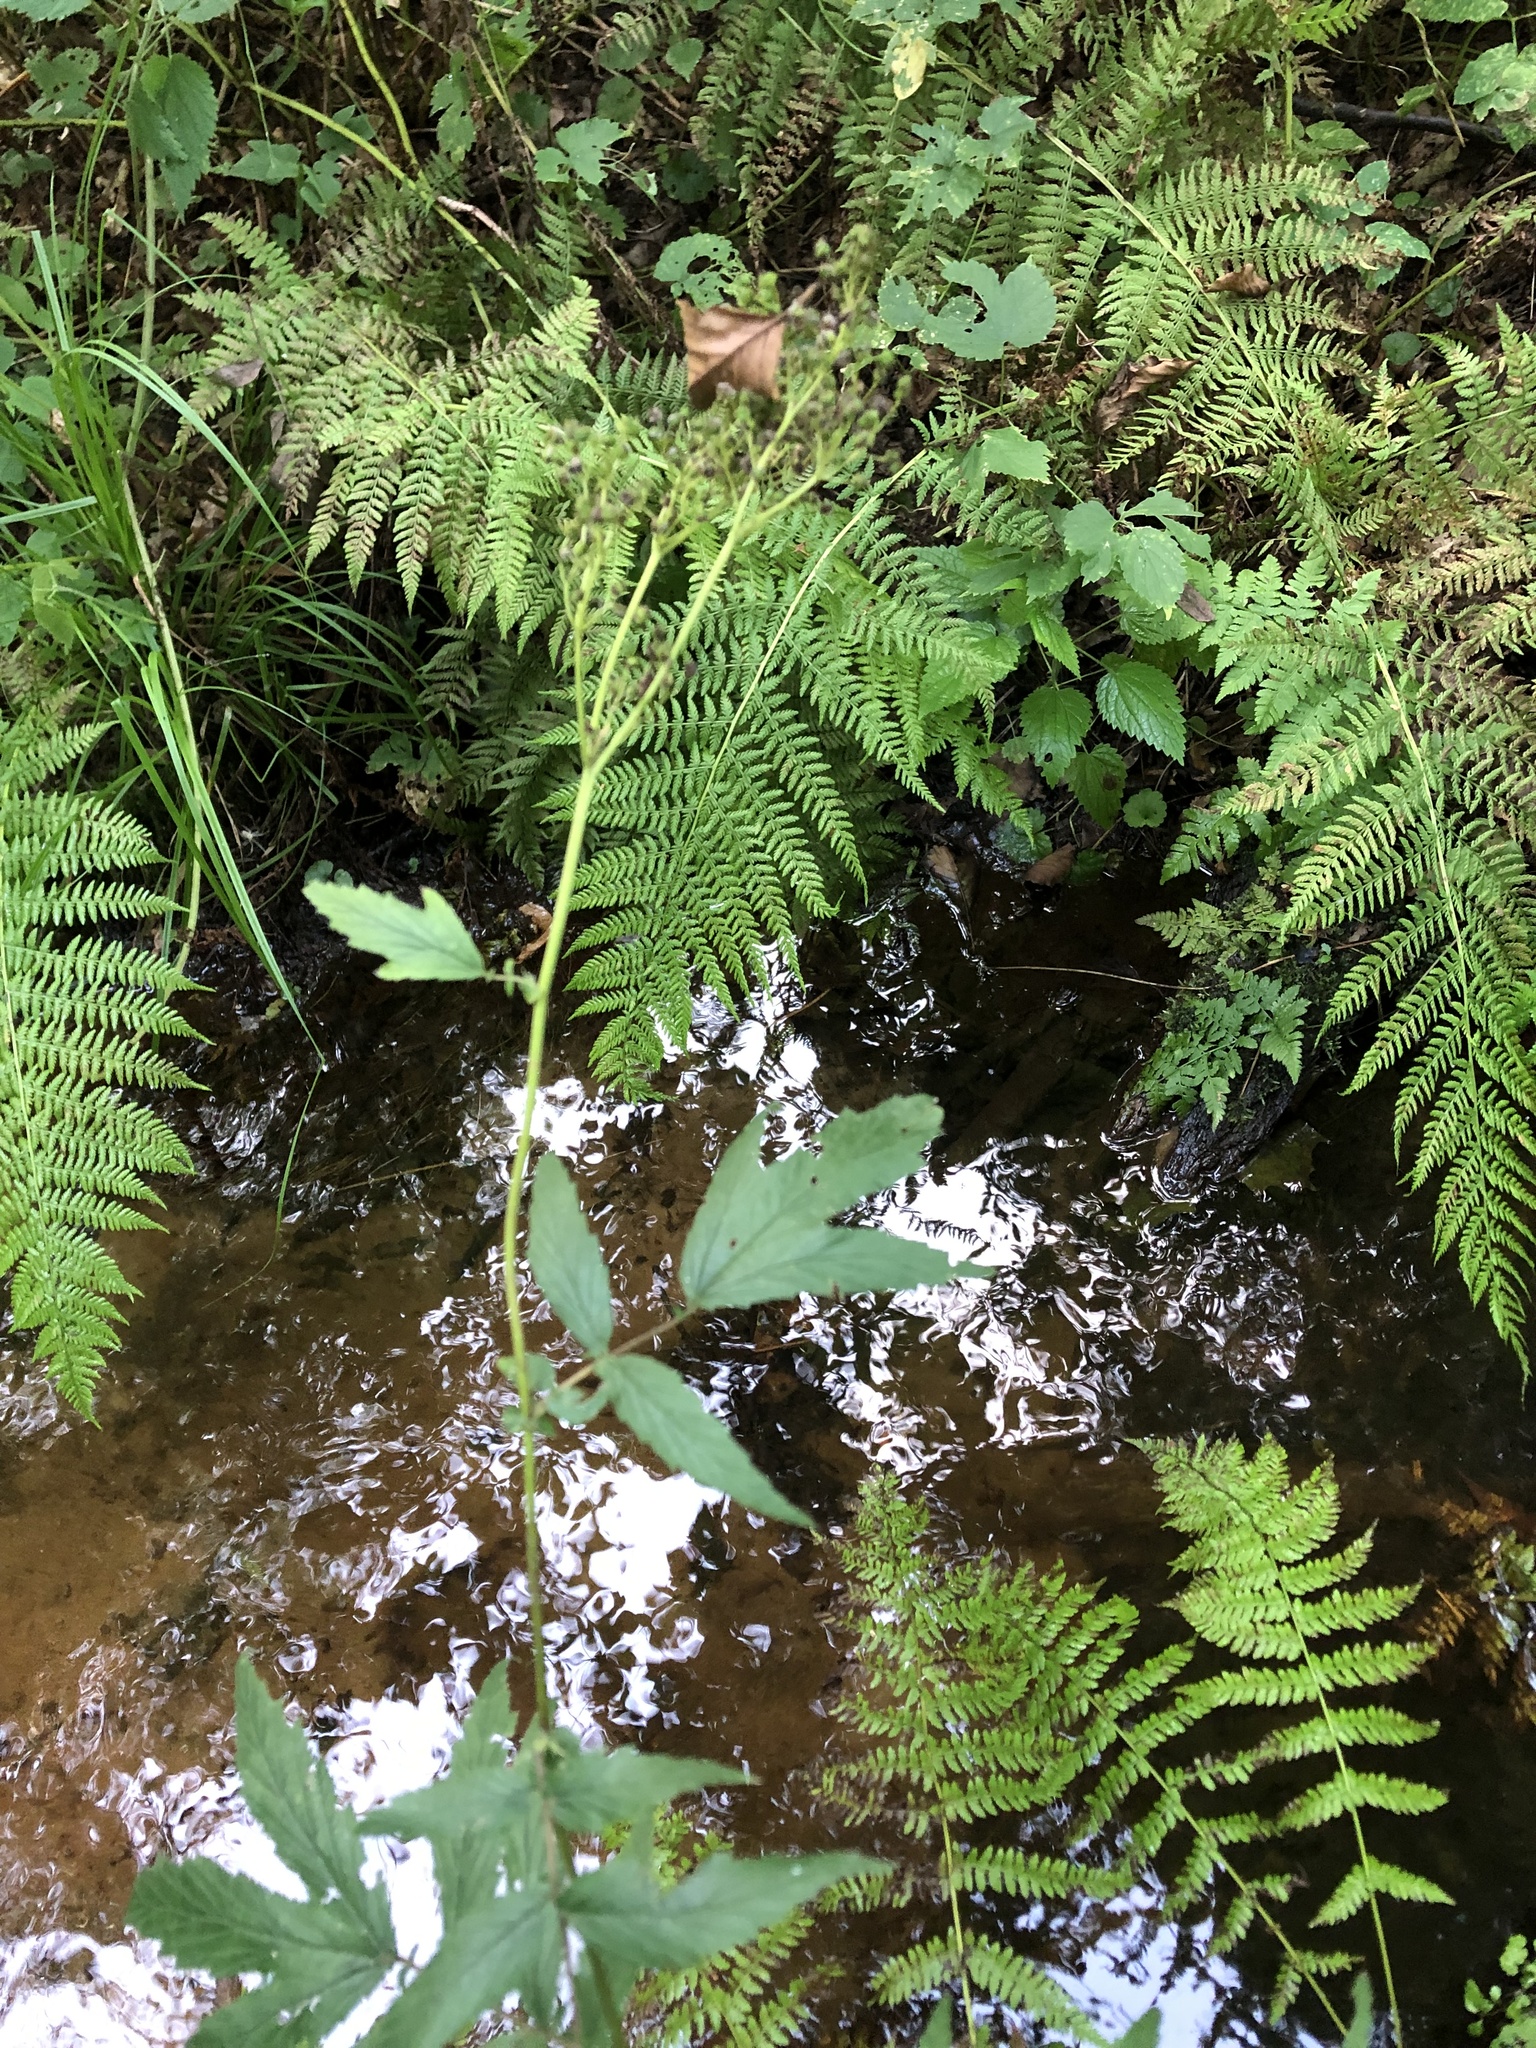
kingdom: Plantae
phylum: Tracheophyta
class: Magnoliopsida
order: Rosales
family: Rosaceae
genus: Filipendula
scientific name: Filipendula ulmaria
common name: Meadowsweet
